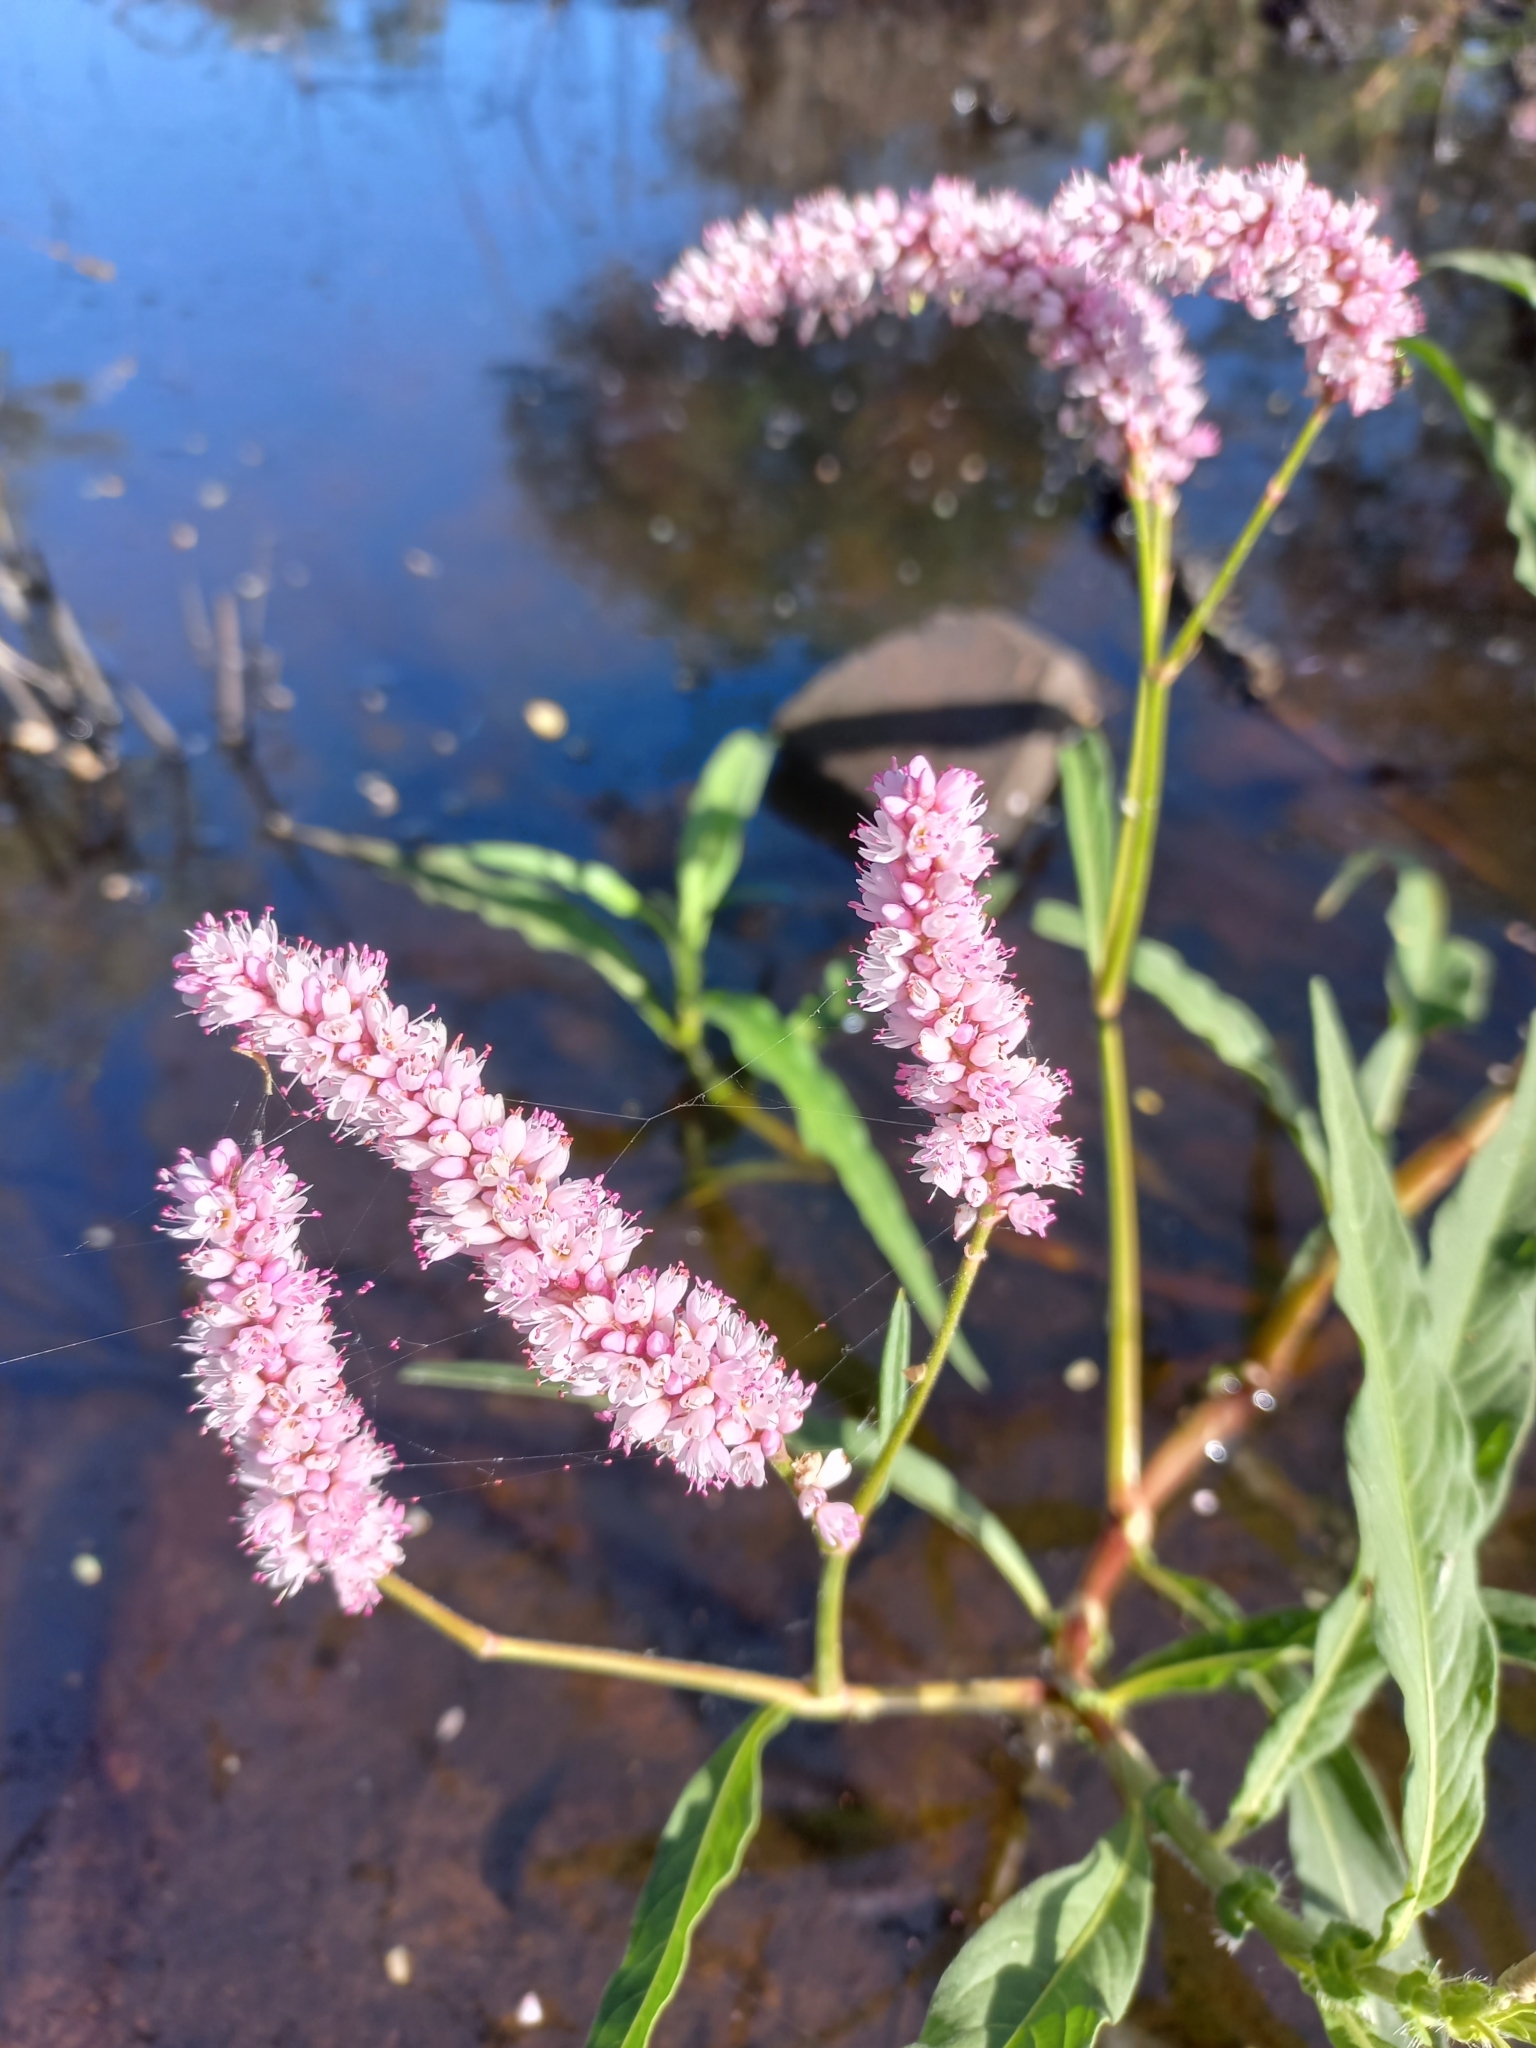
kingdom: Plantae
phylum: Tracheophyta
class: Magnoliopsida
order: Caryophyllales
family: Polygonaceae
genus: Persicaria
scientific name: Persicaria limbata
